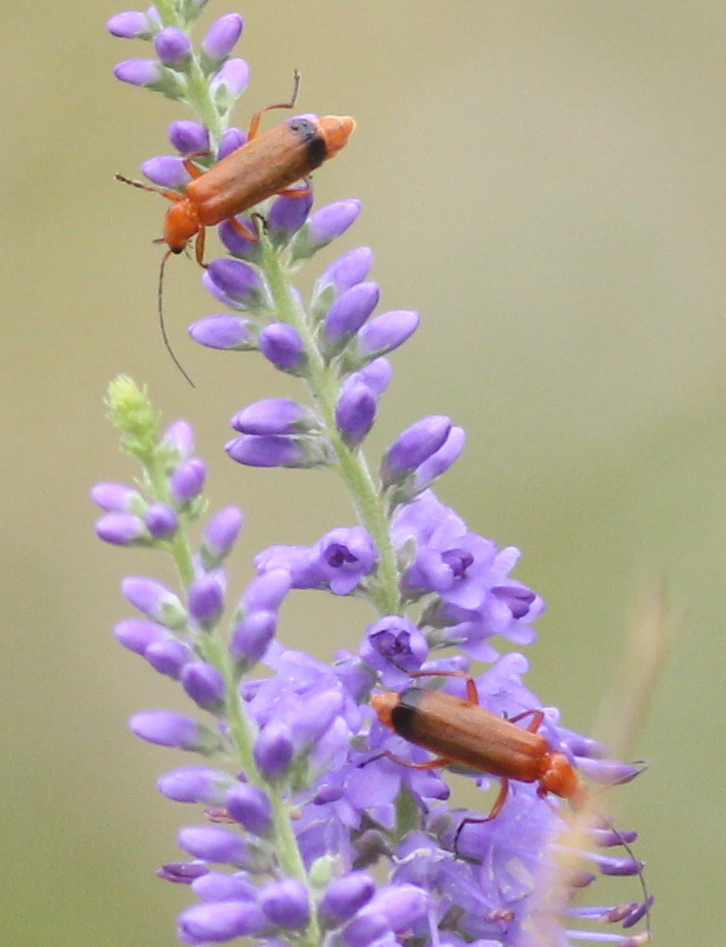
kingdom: Animalia
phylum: Arthropoda
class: Insecta
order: Coleoptera
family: Cantharidae
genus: Rhagonycha
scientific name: Rhagonycha fulva
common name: Common red soldier beetle
